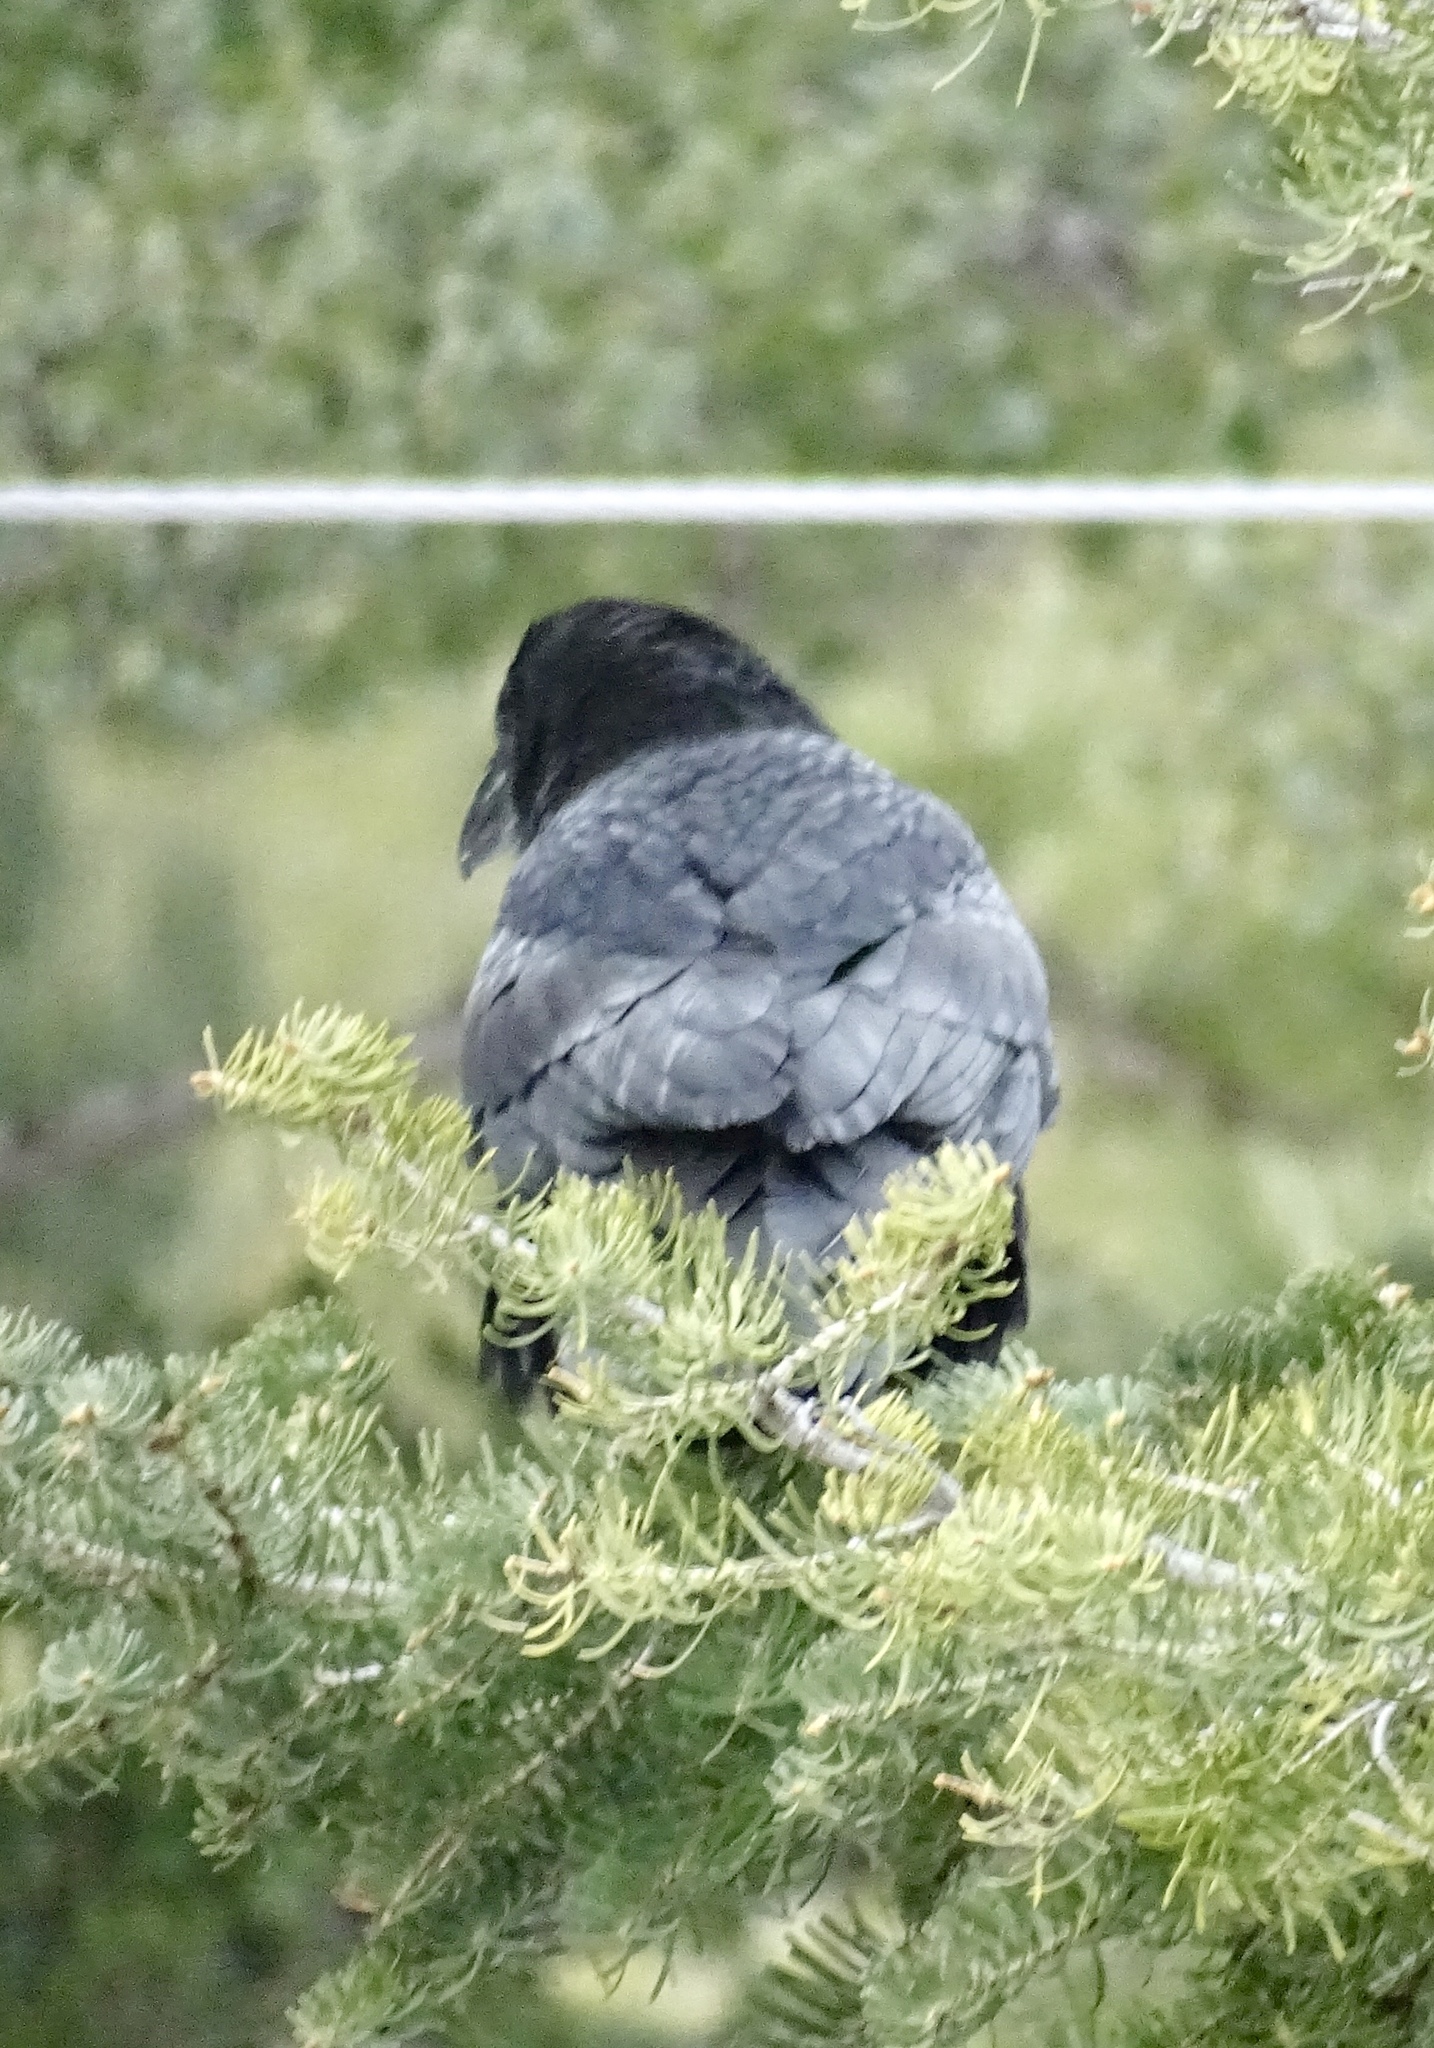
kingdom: Animalia
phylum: Chordata
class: Aves
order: Passeriformes
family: Corvidae
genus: Corvus
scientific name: Corvus corax
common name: Common raven
